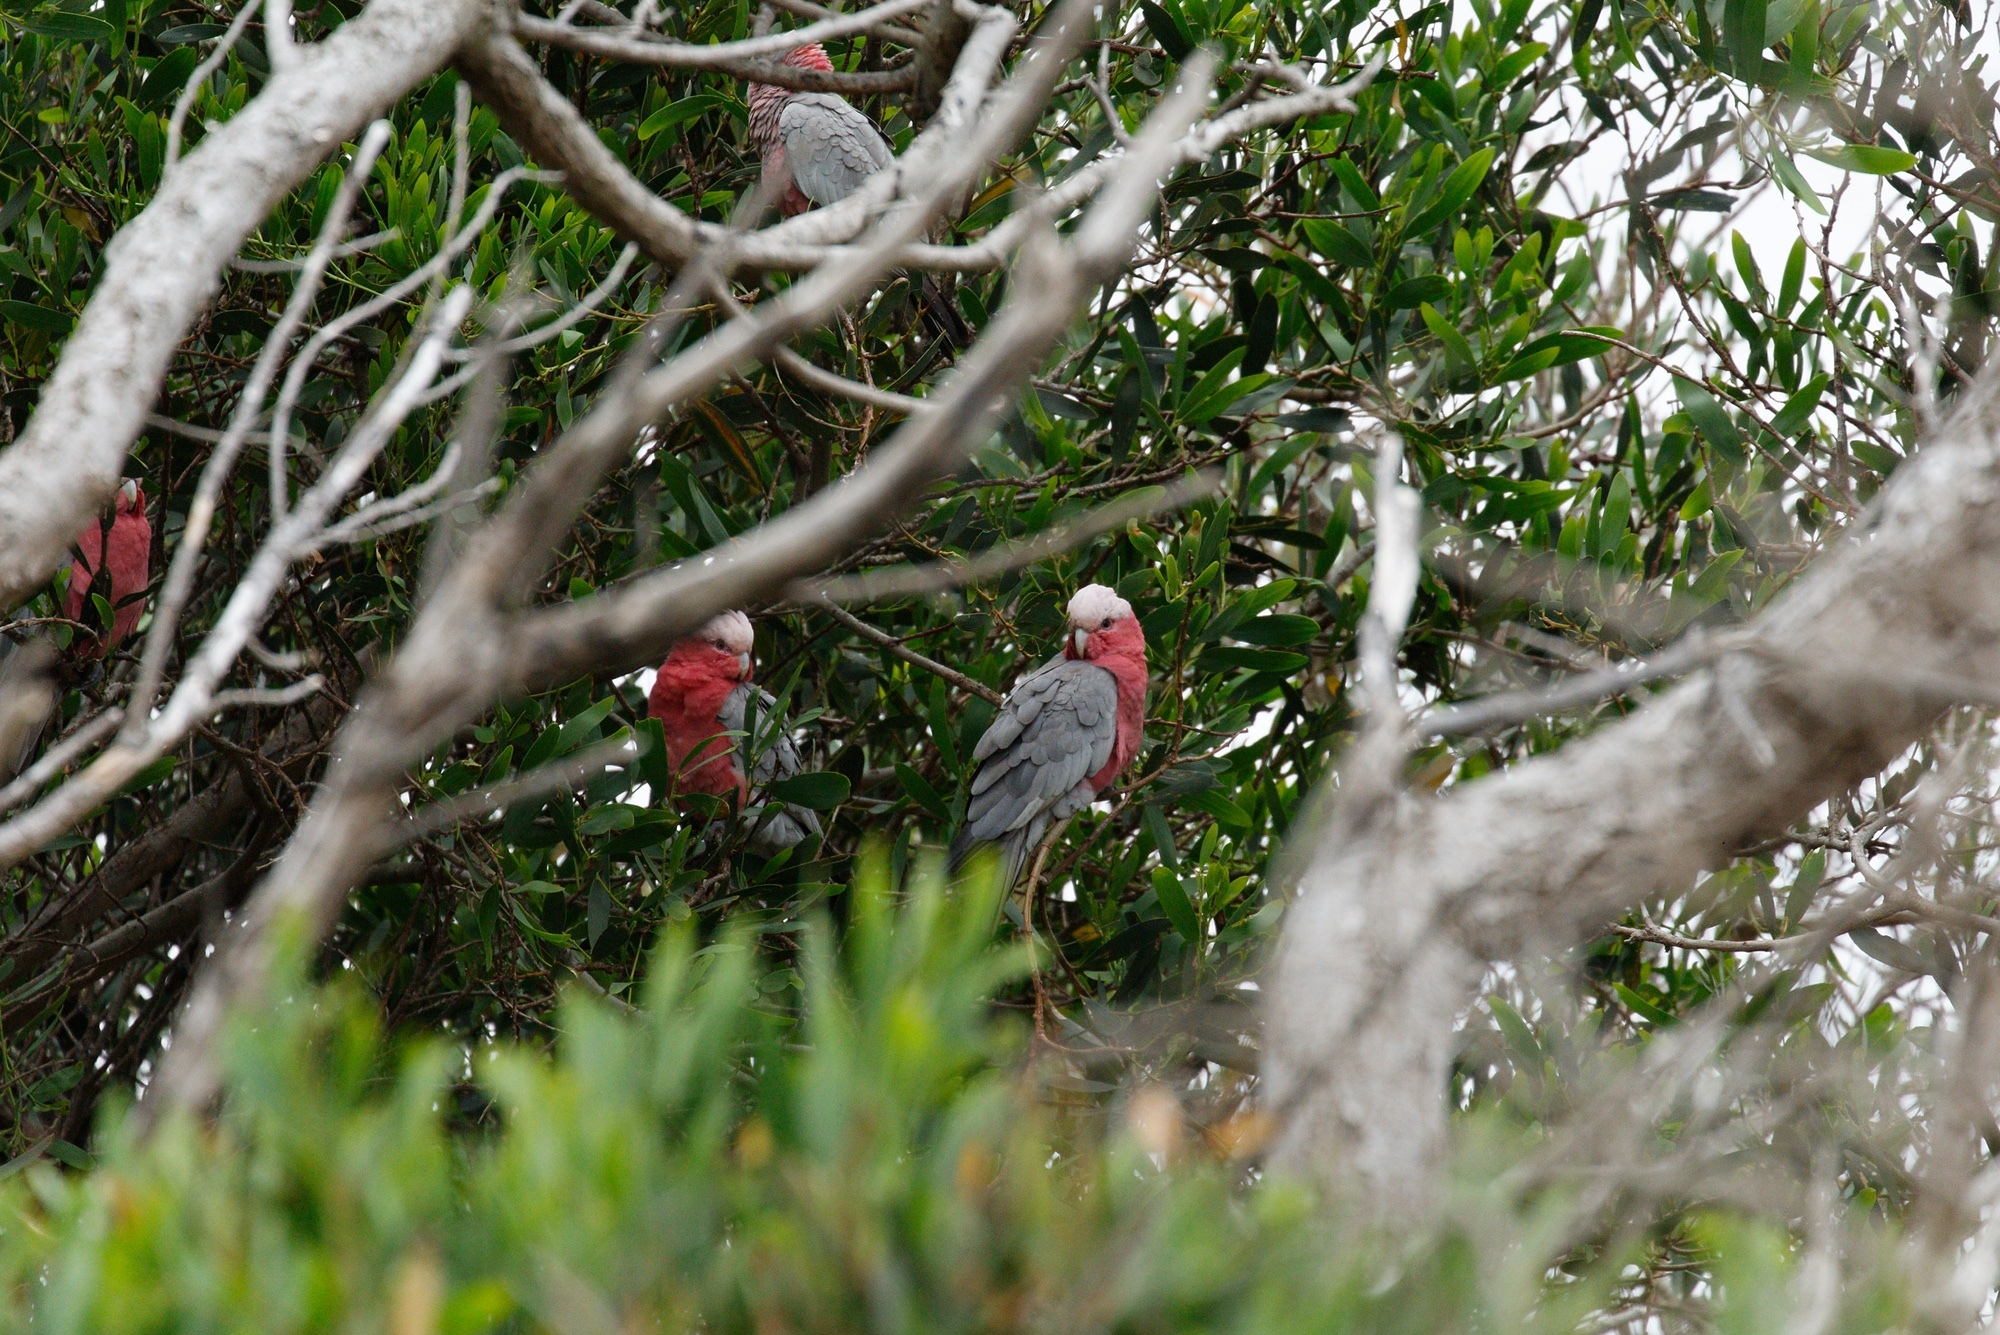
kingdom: Animalia
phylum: Chordata
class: Aves
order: Psittaciformes
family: Psittacidae
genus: Eolophus
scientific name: Eolophus roseicapilla
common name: Galah
